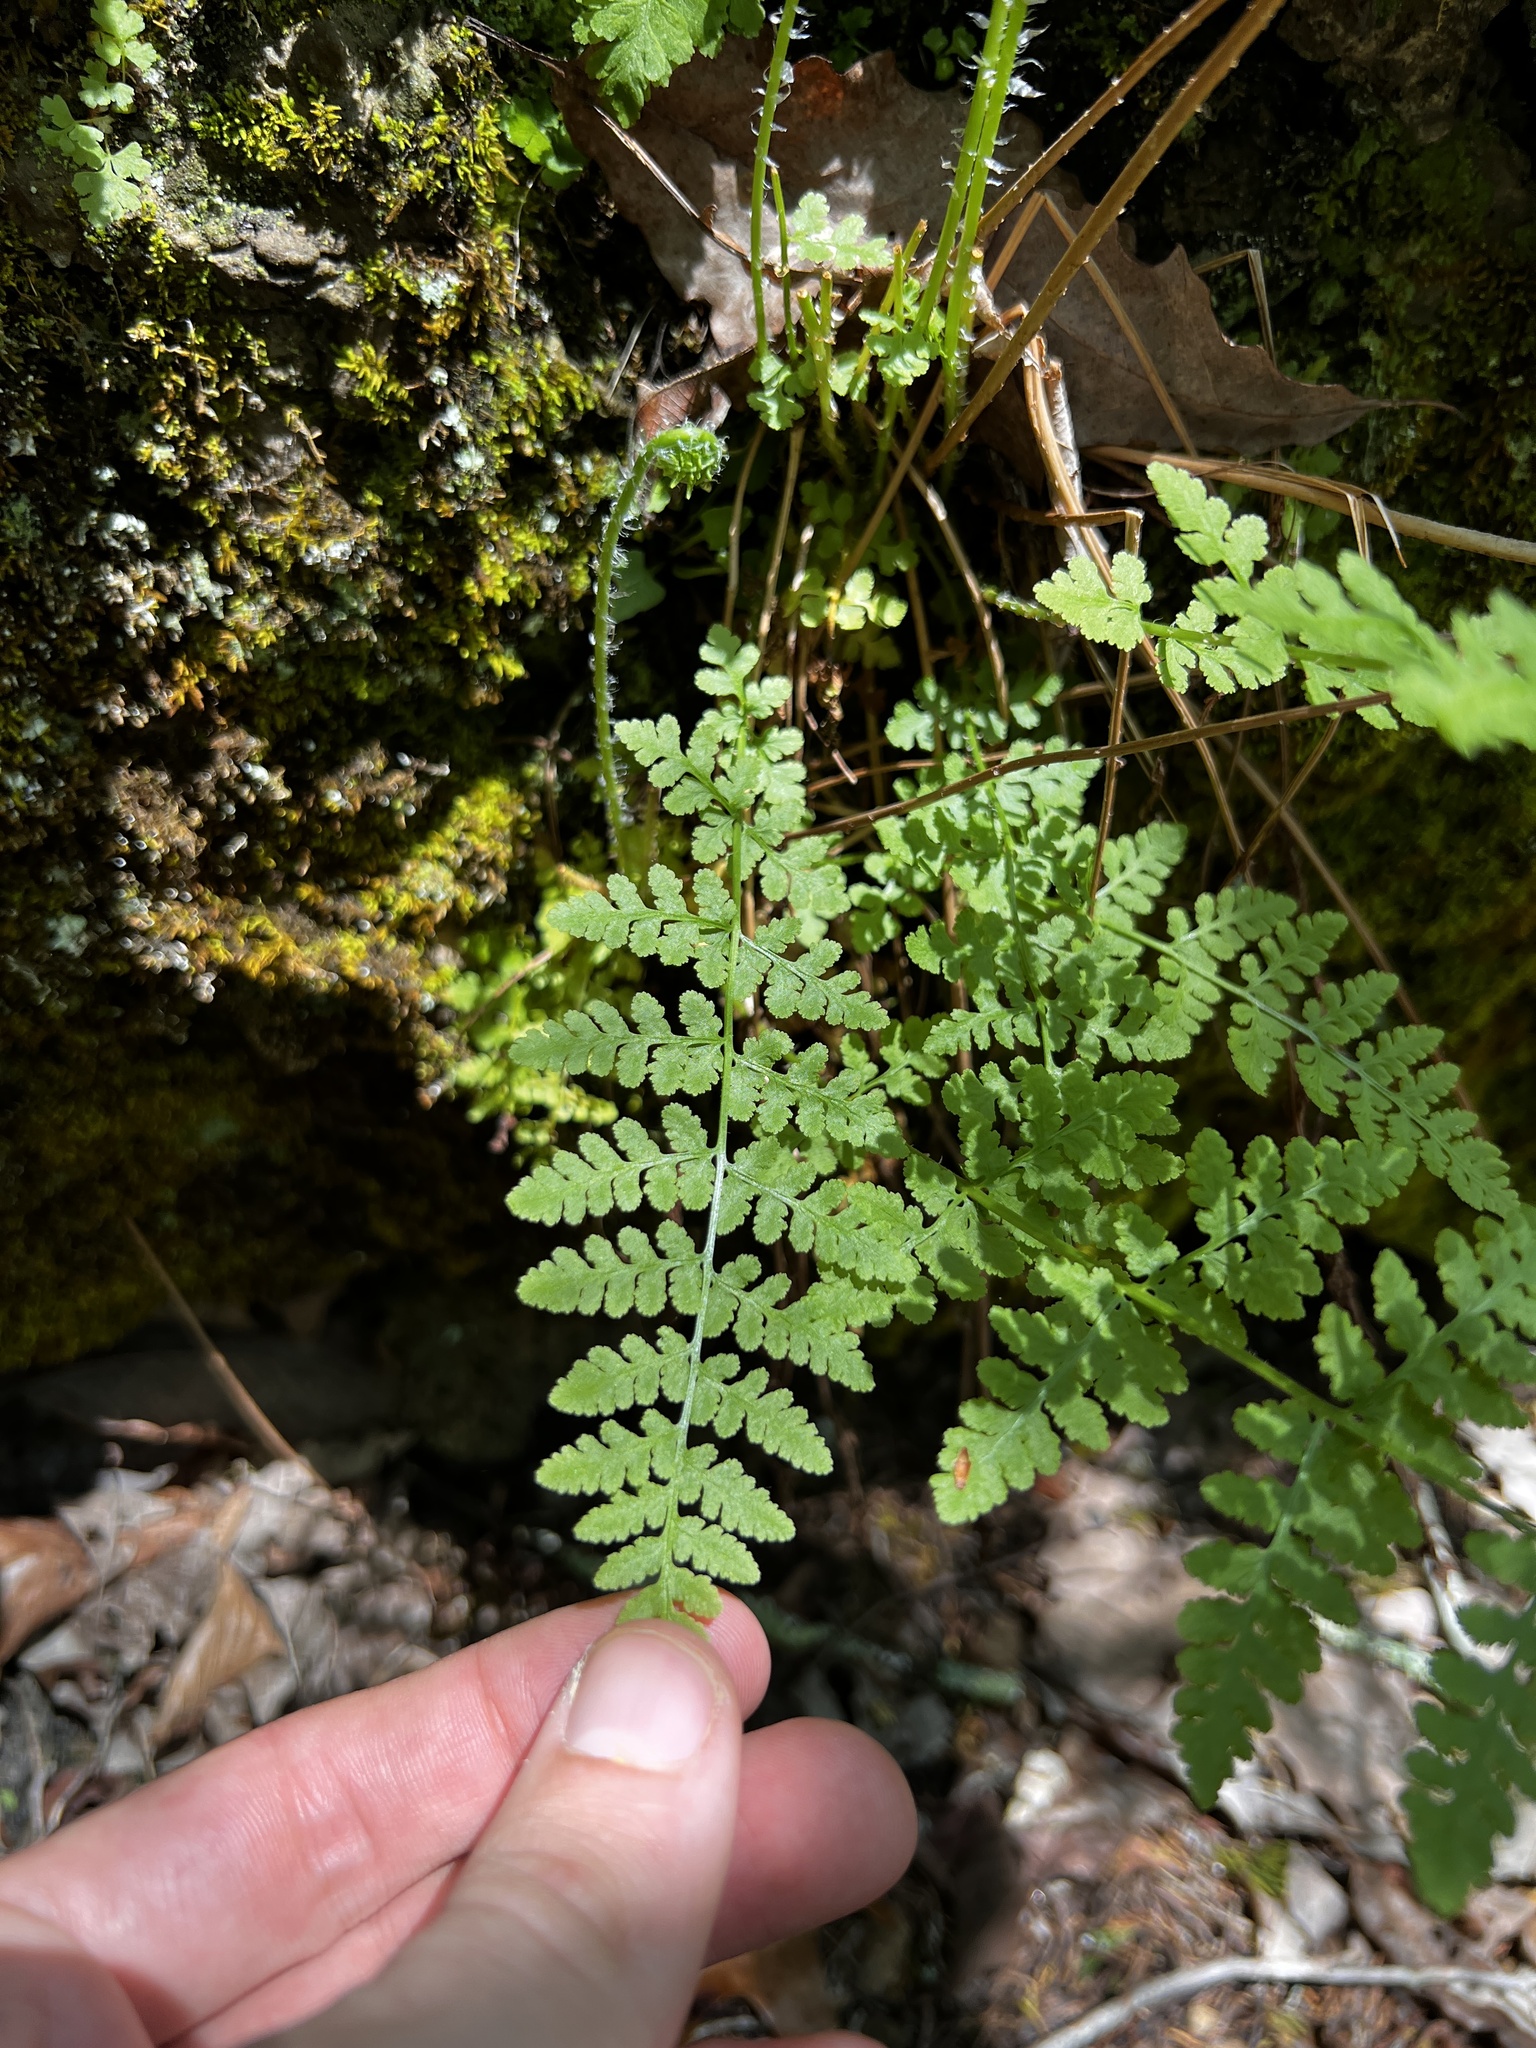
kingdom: Plantae
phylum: Tracheophyta
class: Polypodiopsida
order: Polypodiales
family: Woodsiaceae
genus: Physematium
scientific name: Physematium obtusum
